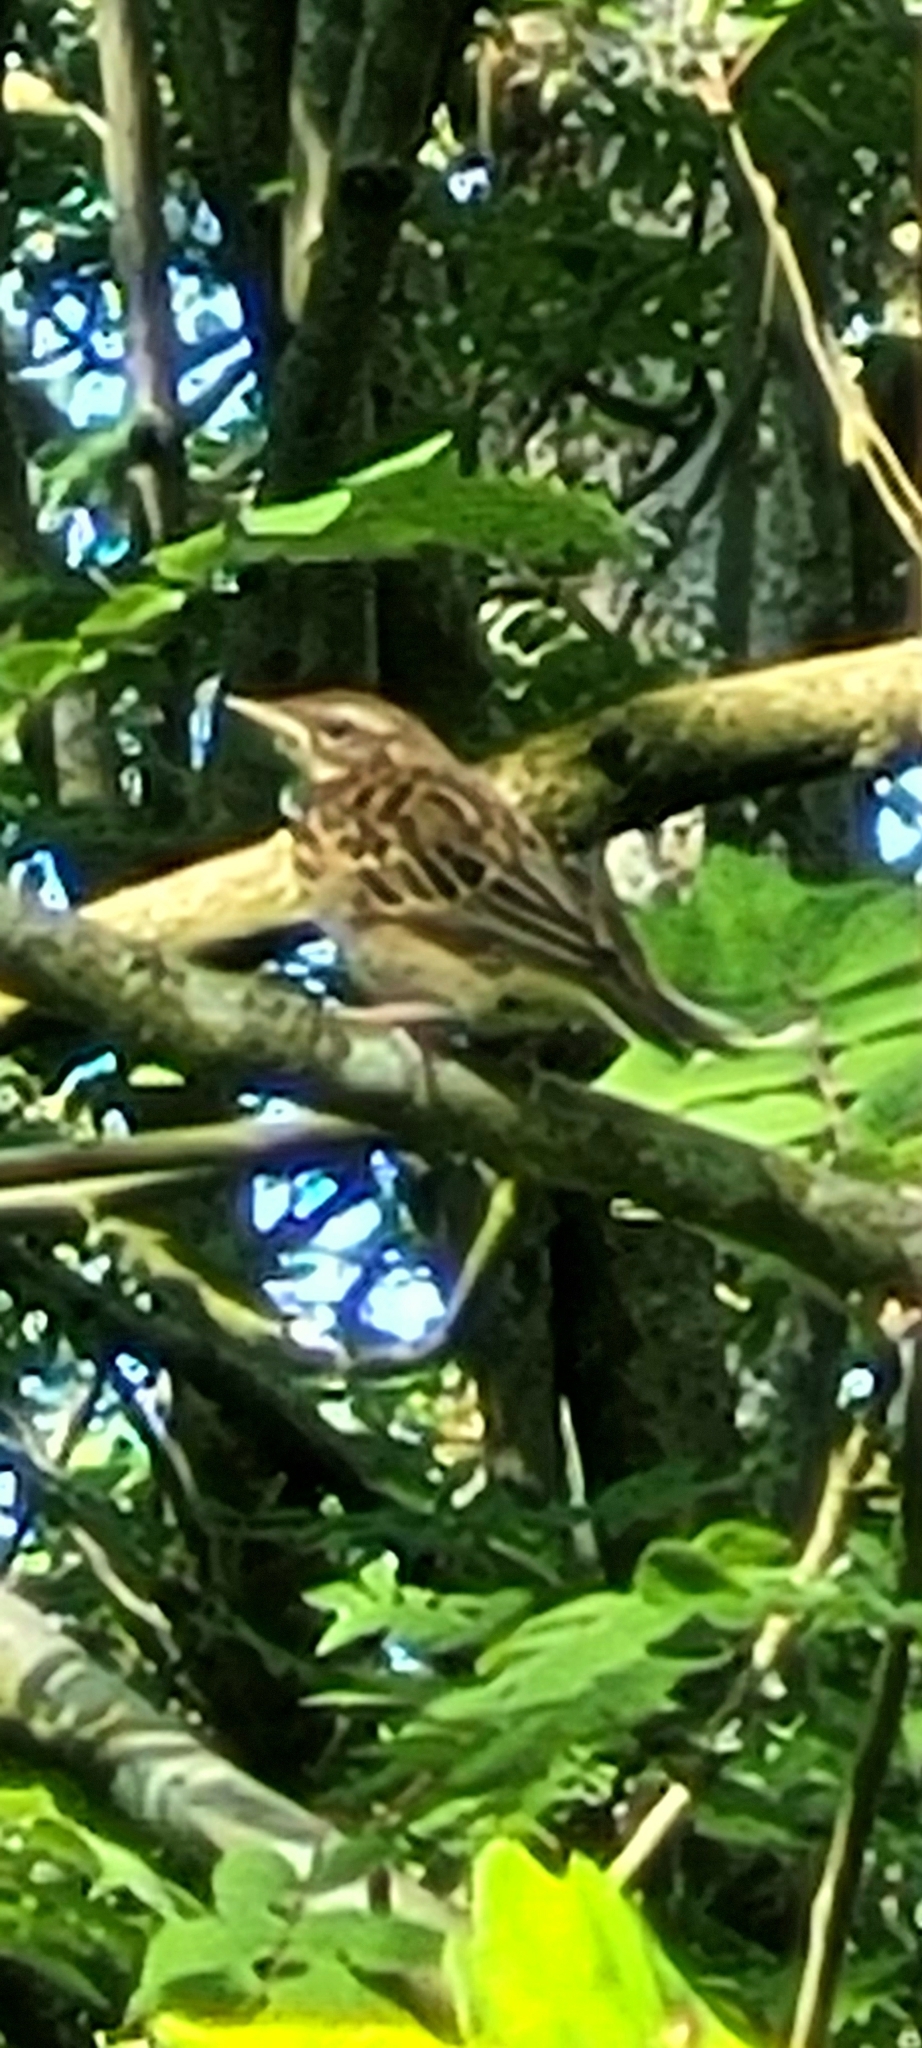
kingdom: Animalia
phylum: Chordata
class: Aves
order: Passeriformes
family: Motacillidae
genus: Anthus
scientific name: Anthus trivialis
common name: Tree pipit
